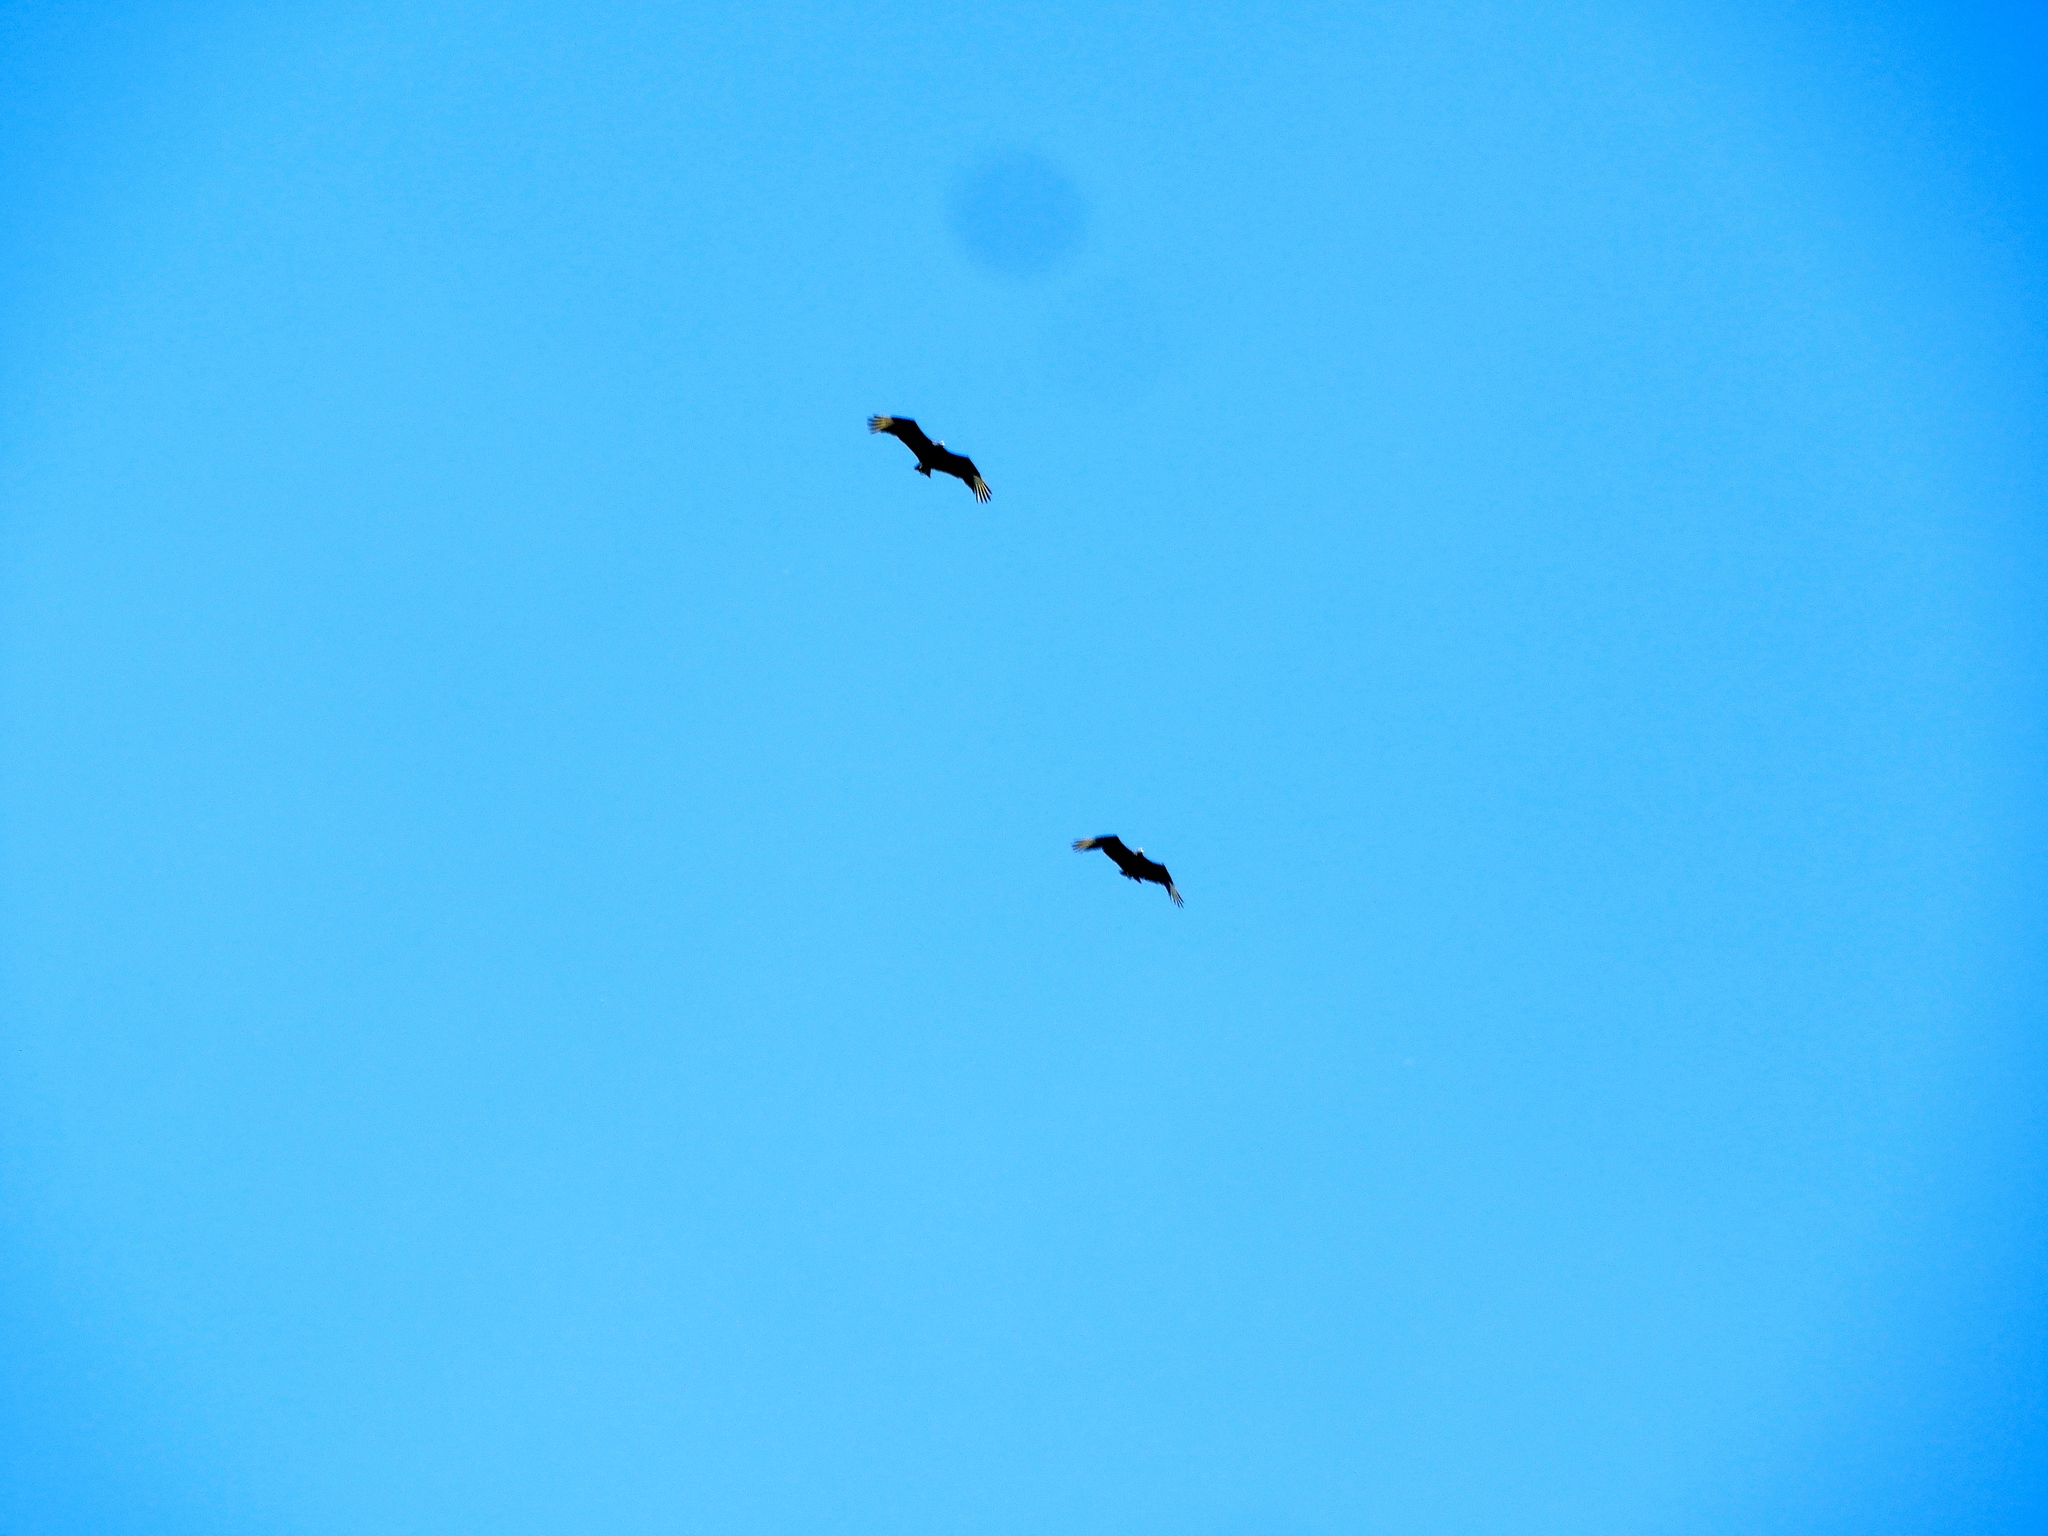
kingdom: Animalia
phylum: Chordata
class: Aves
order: Accipitriformes
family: Cathartidae
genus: Coragyps
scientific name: Coragyps atratus
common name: Black vulture
